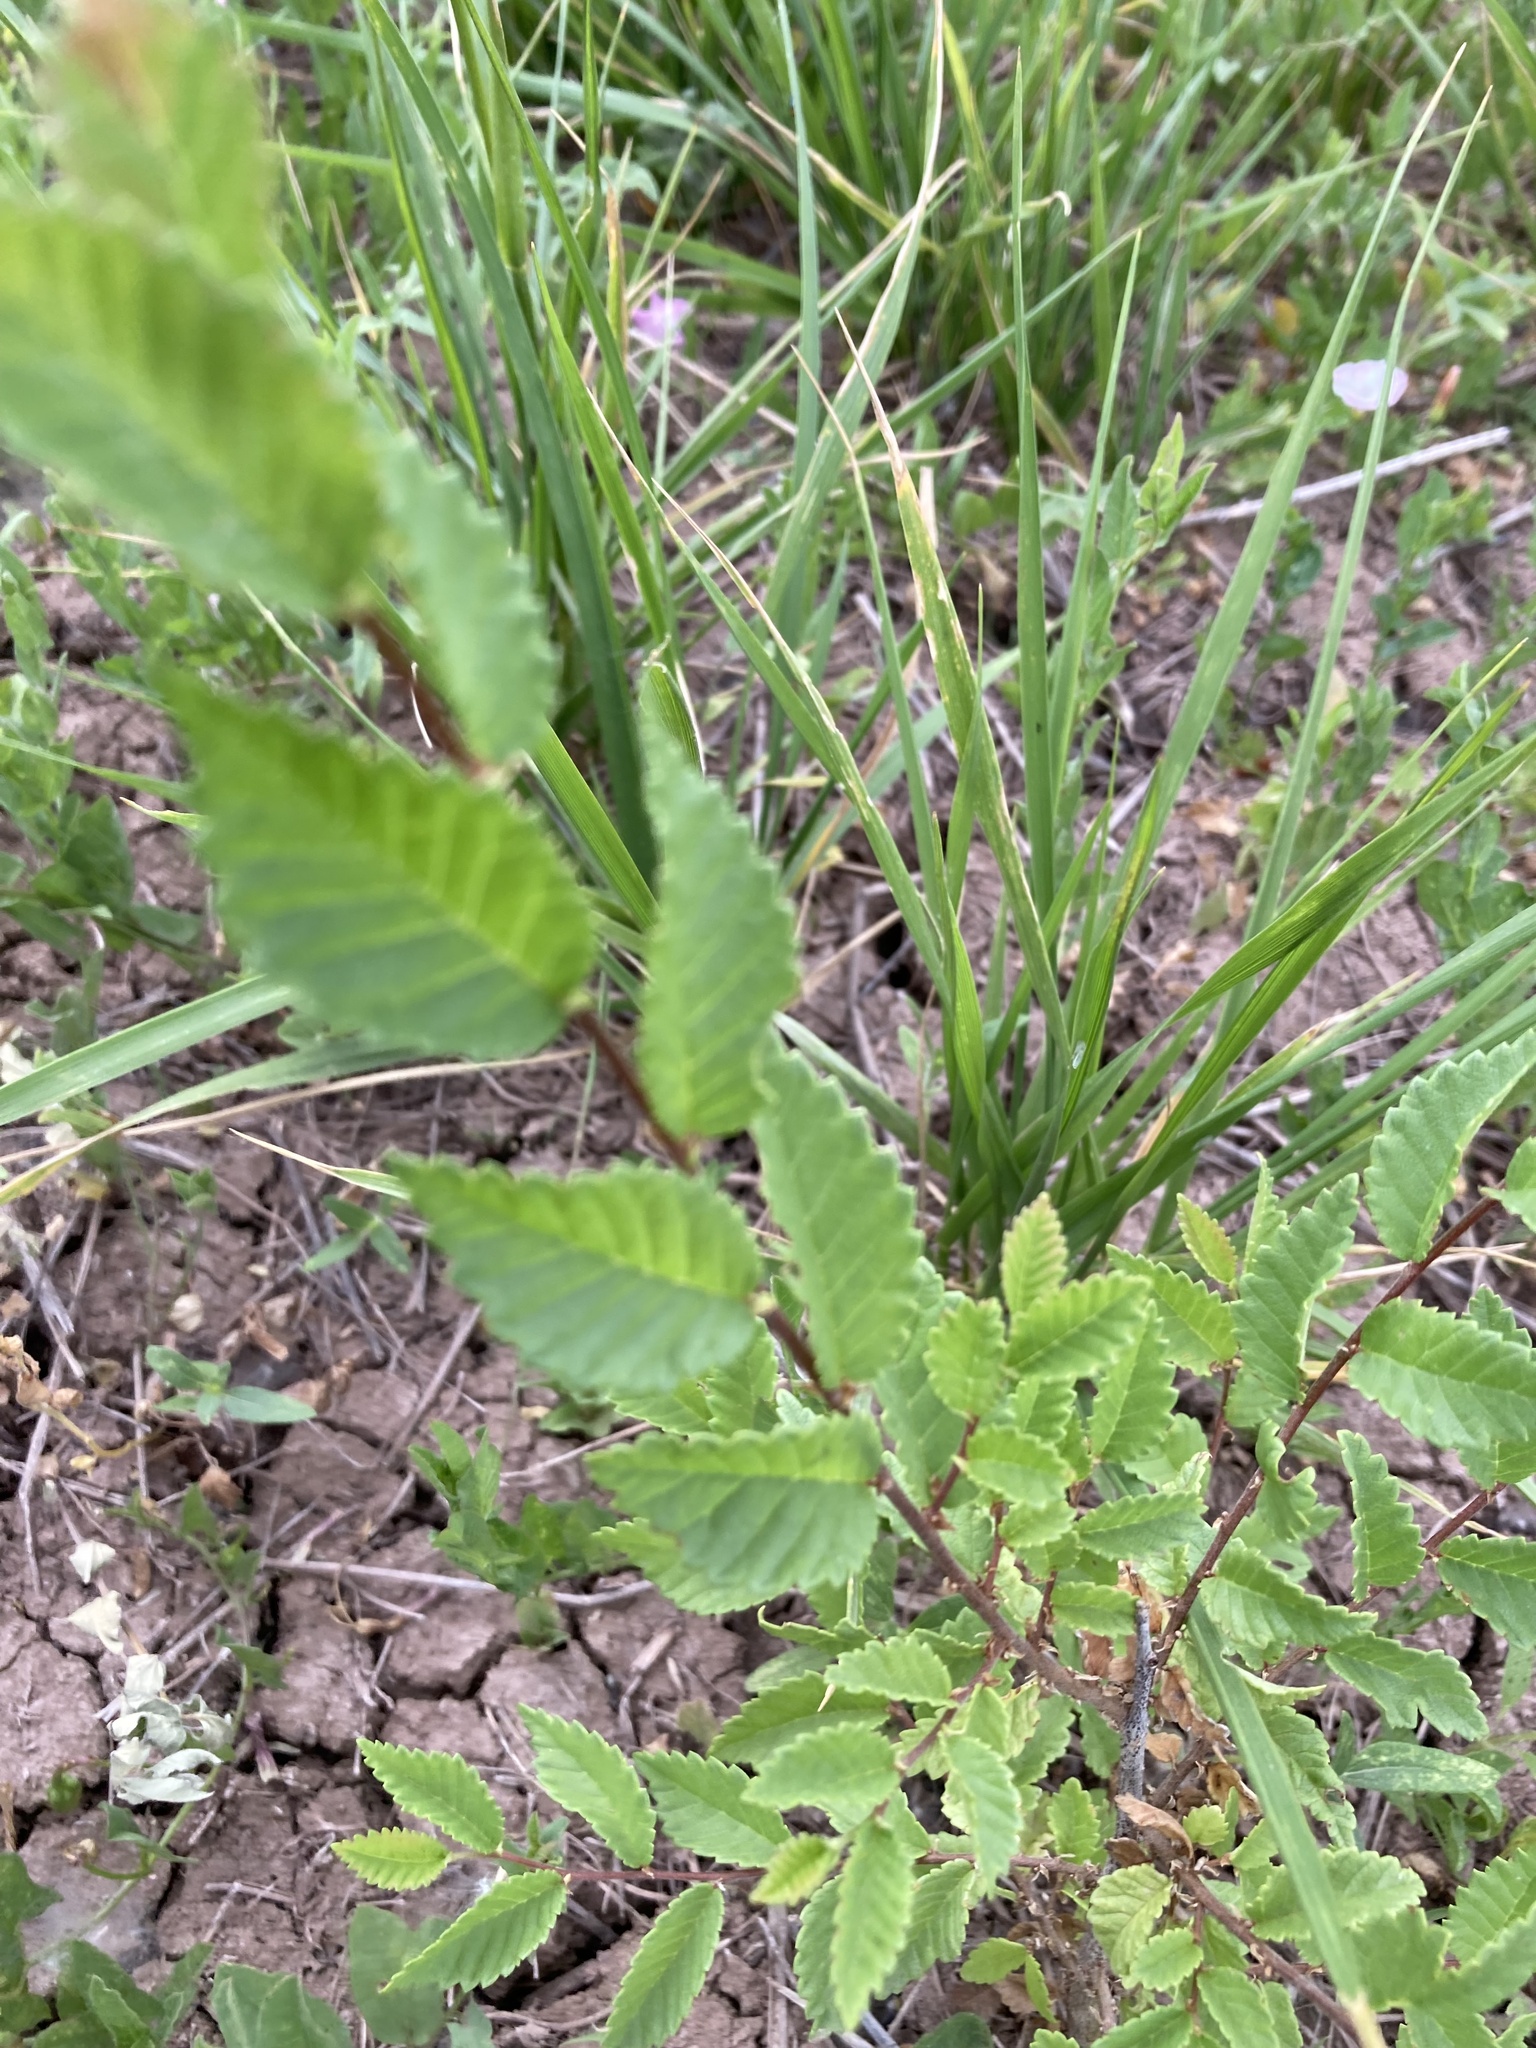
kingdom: Plantae
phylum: Tracheophyta
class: Magnoliopsida
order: Rosales
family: Ulmaceae
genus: Ulmus
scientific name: Ulmus pumila
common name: Siberian elm
